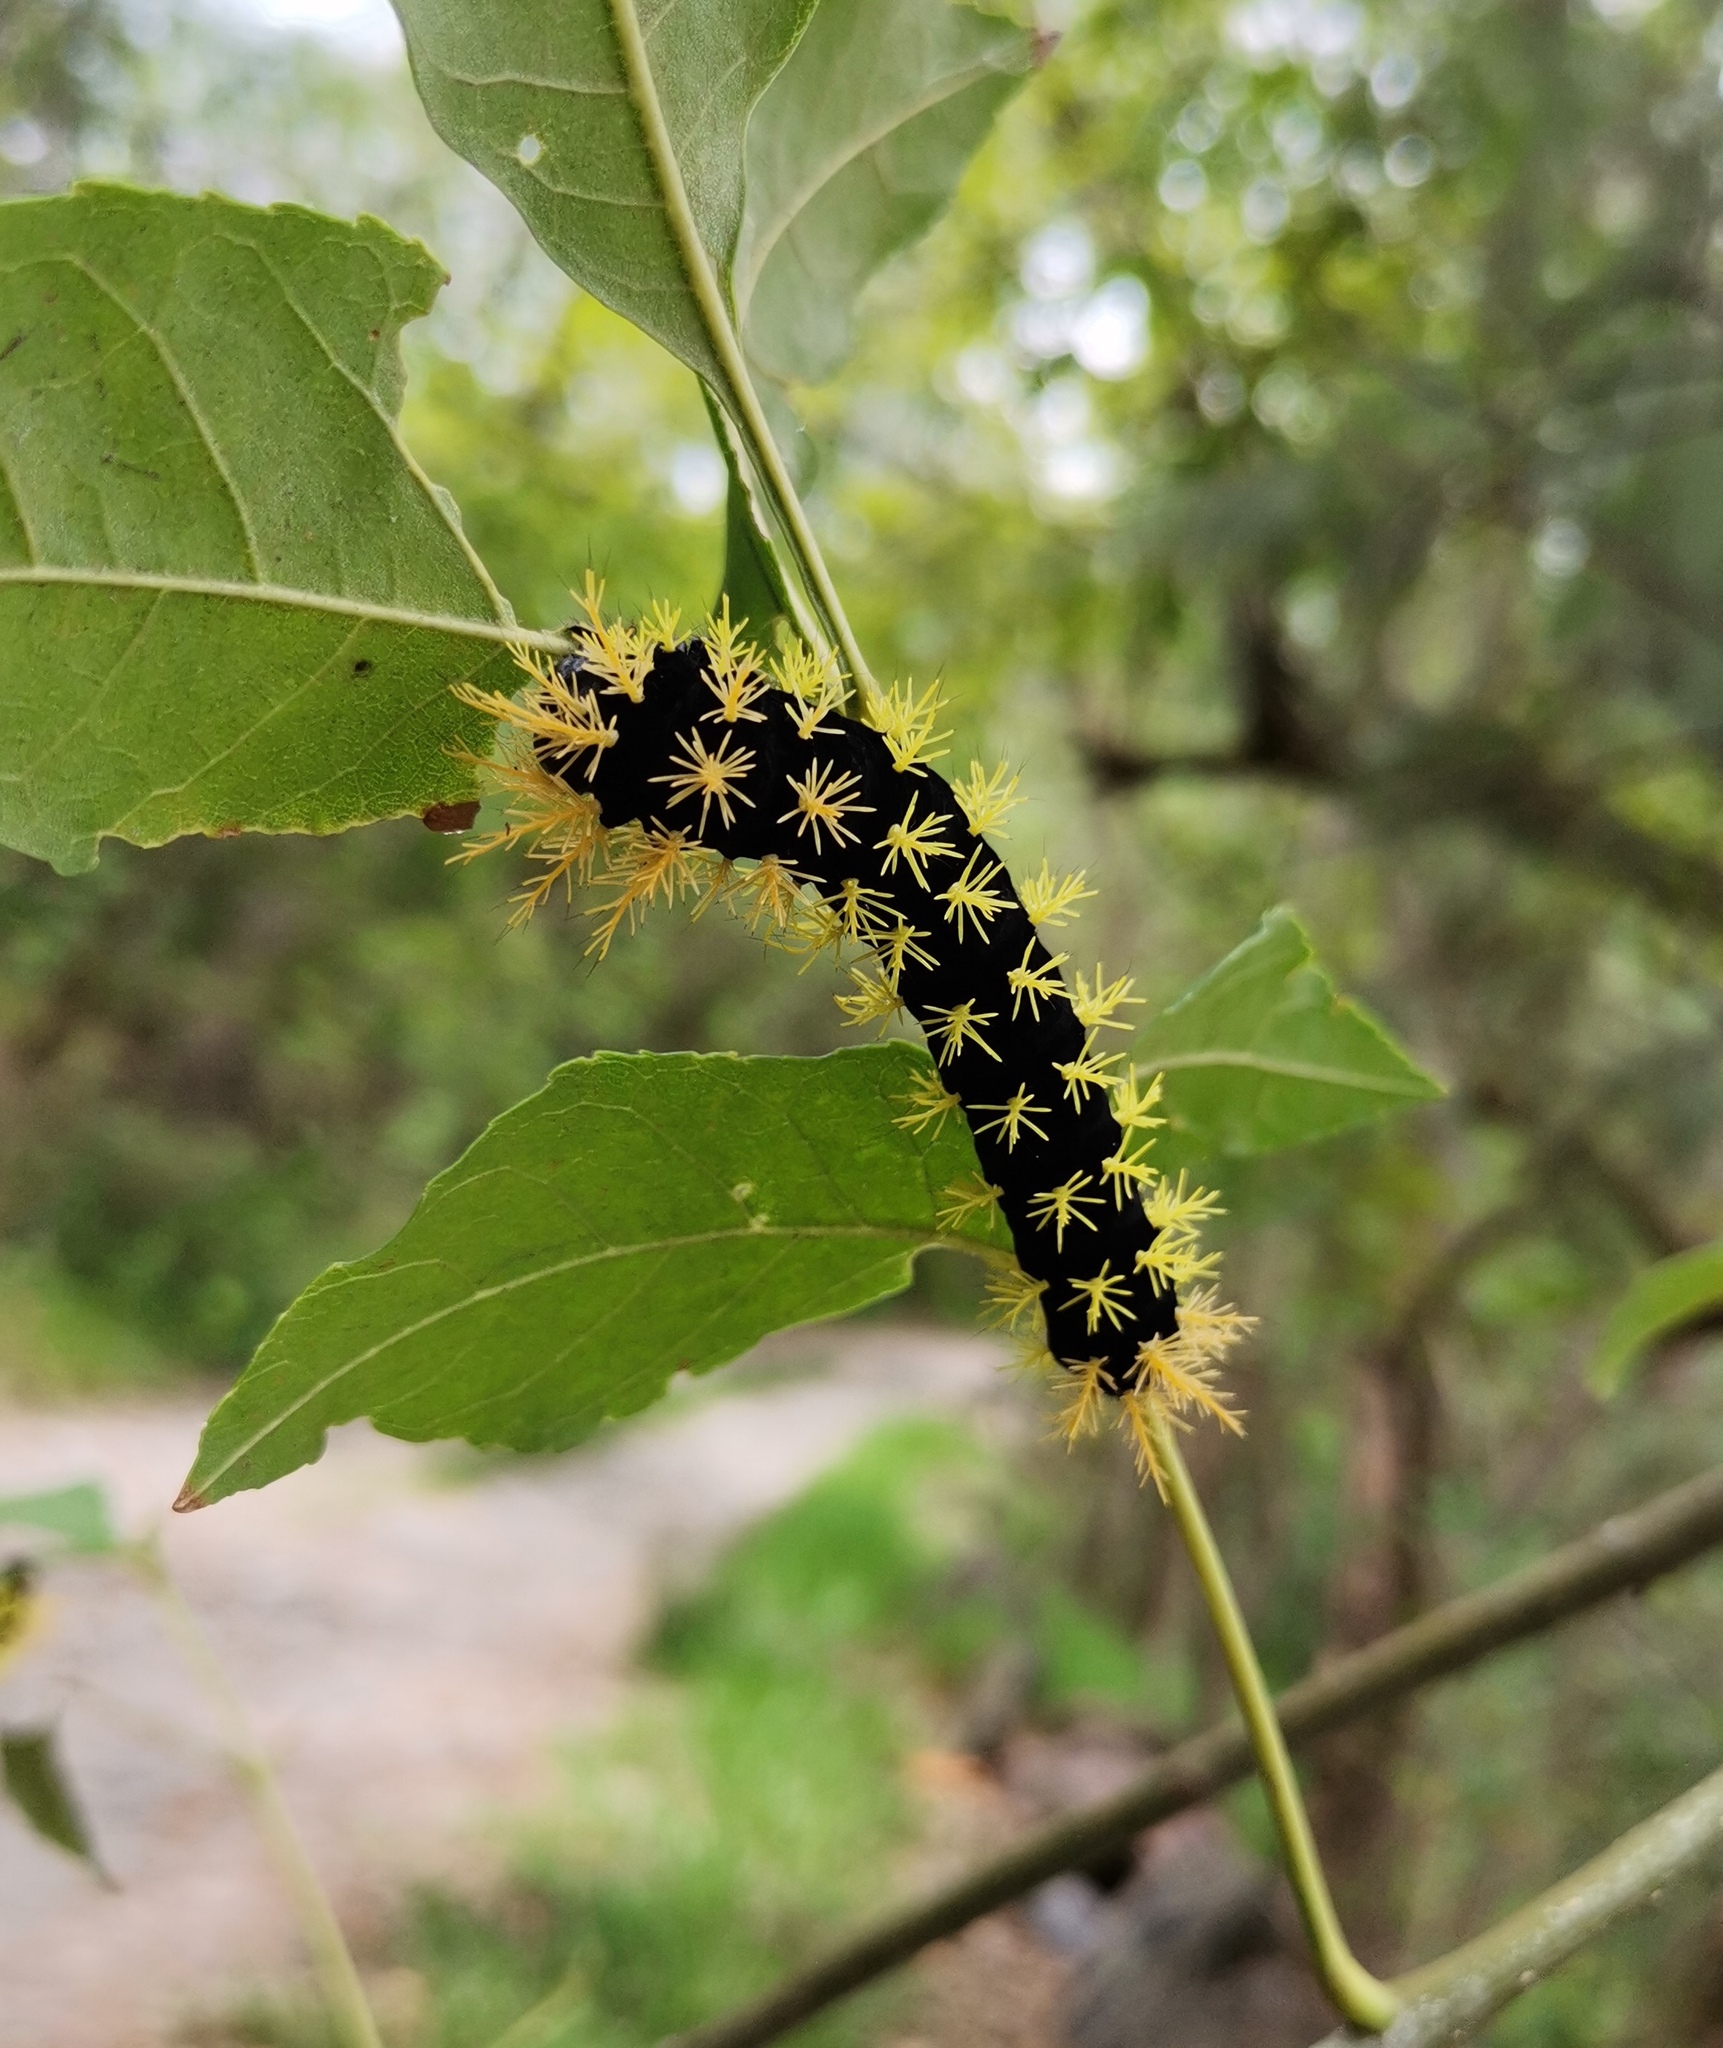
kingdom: Plantae
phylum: Tracheophyta
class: Magnoliopsida
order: Lamiales
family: Oleaceae
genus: Fraxinus
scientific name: Fraxinus uhdei
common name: Shamel ash
